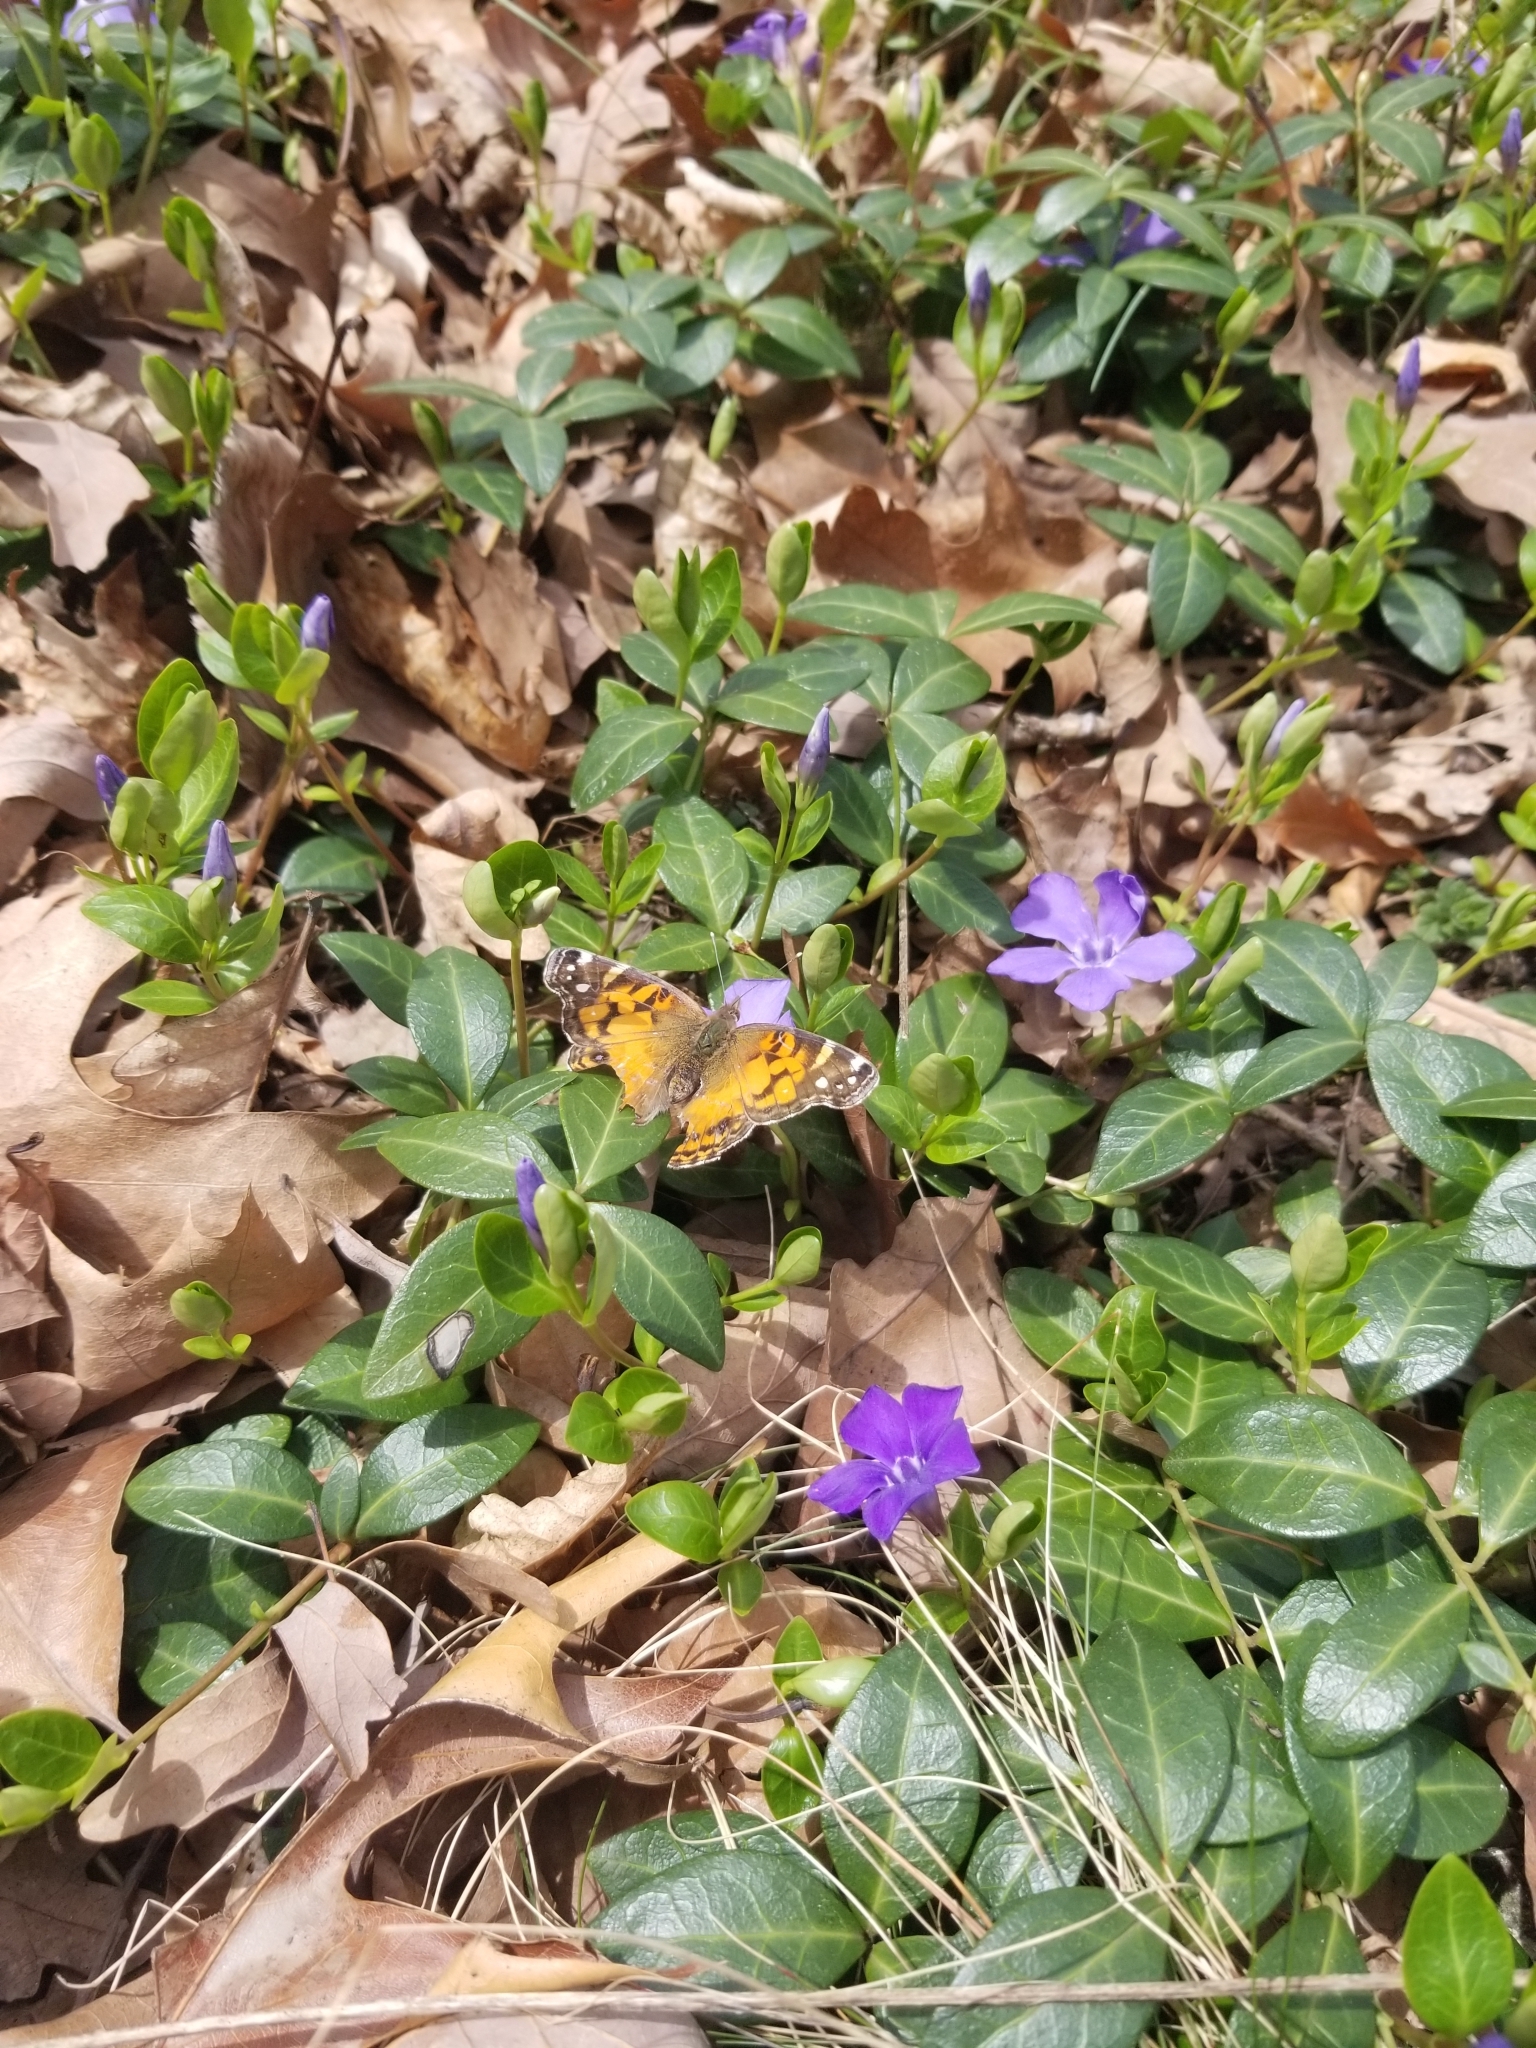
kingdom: Animalia
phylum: Arthropoda
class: Insecta
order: Lepidoptera
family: Nymphalidae
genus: Vanessa
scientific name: Vanessa virginiensis
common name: American lady
